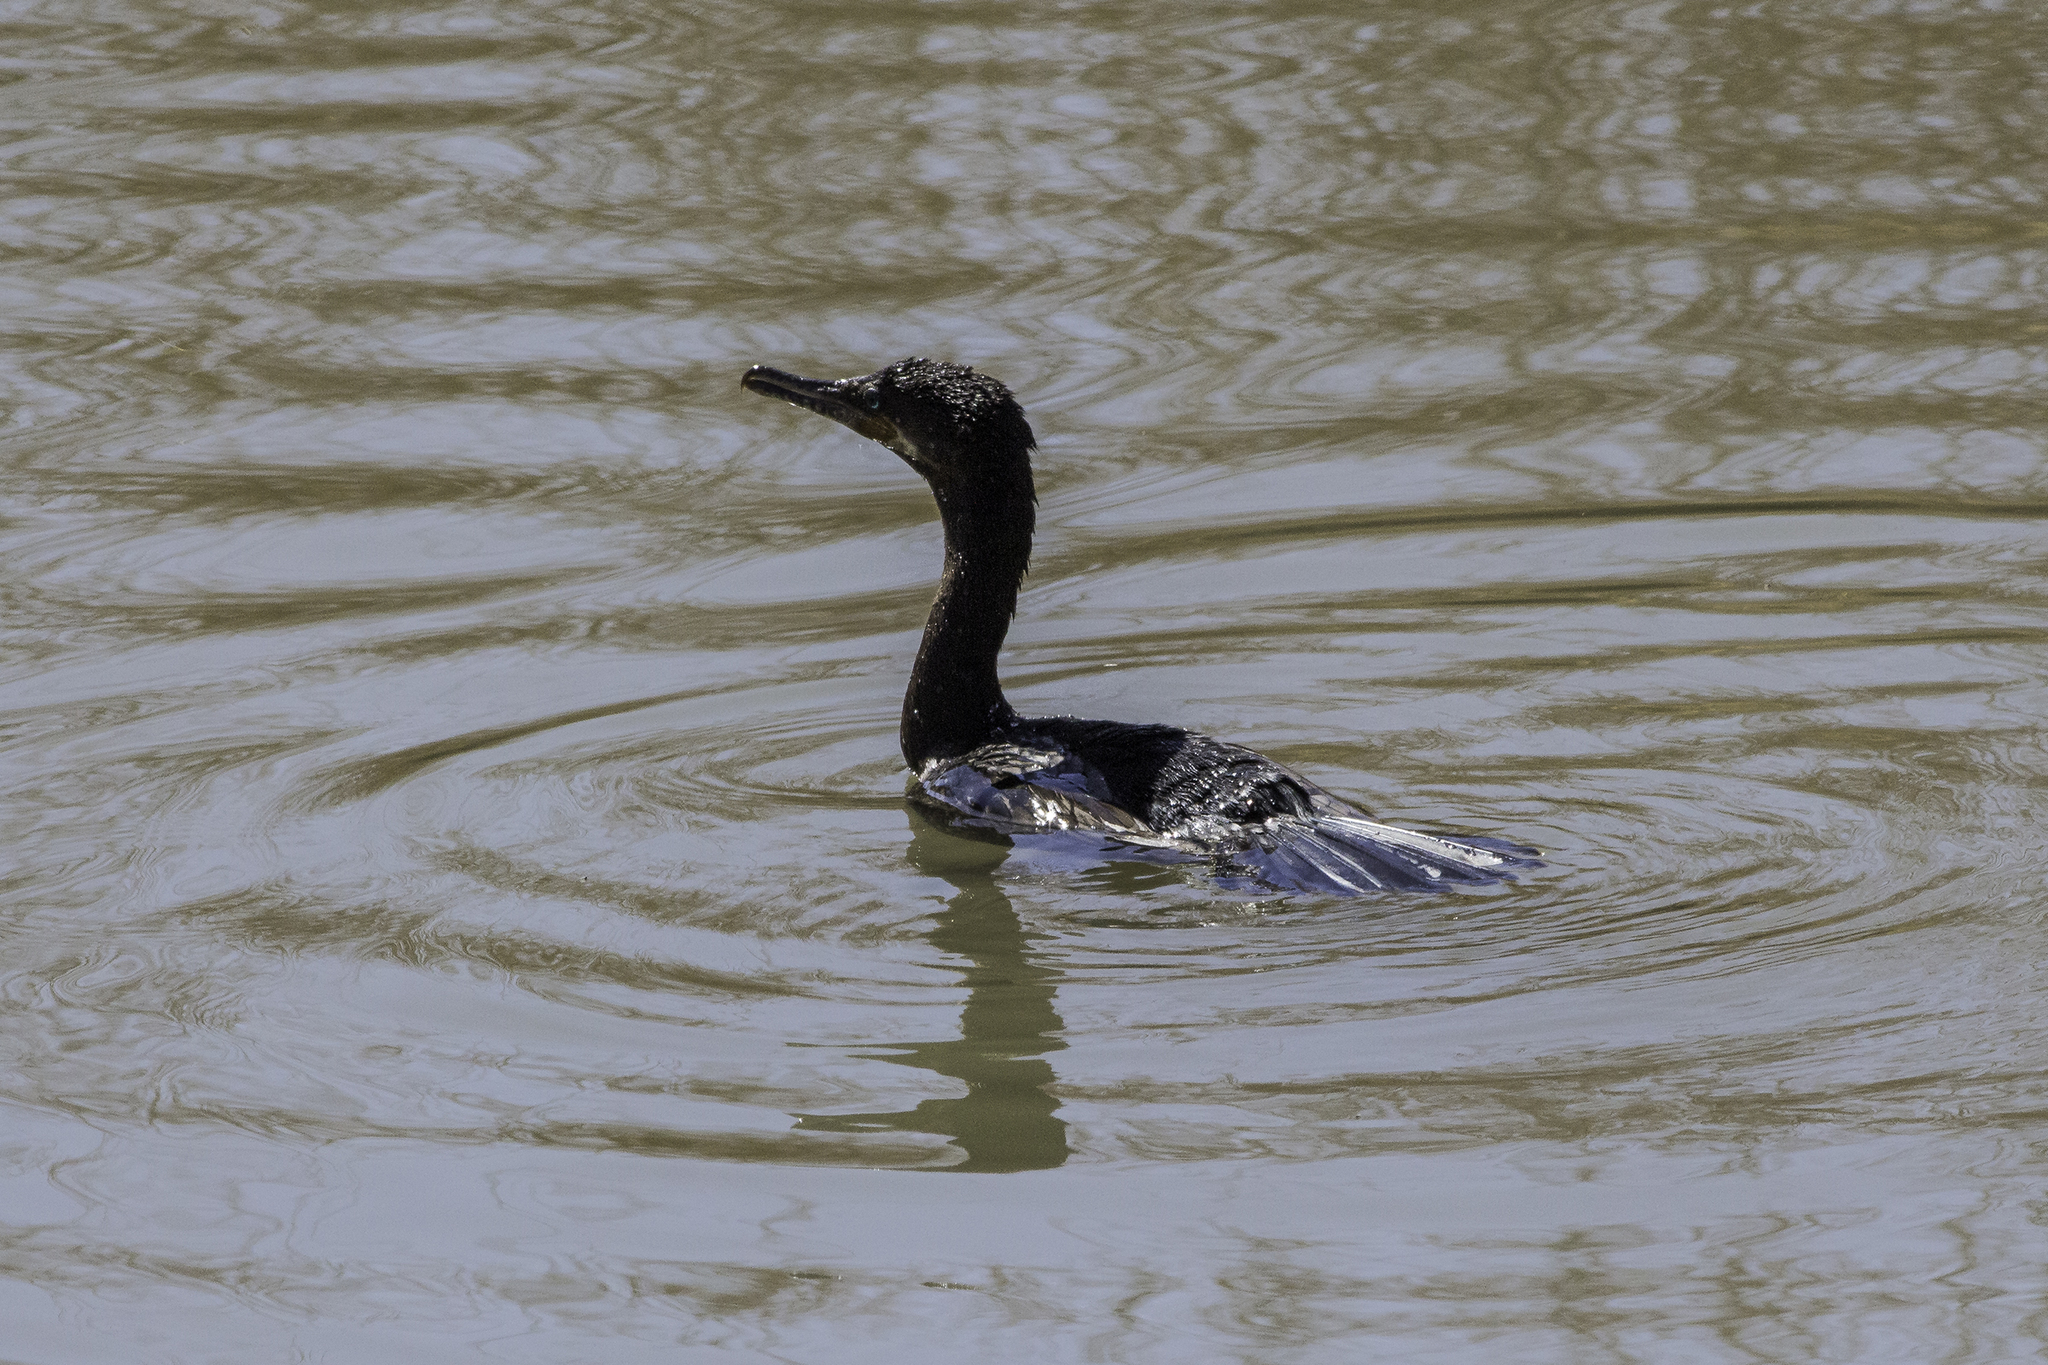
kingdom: Animalia
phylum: Chordata
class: Aves
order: Suliformes
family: Phalacrocoracidae
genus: Phalacrocorax
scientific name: Phalacrocorax brasilianus
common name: Neotropic cormorant
